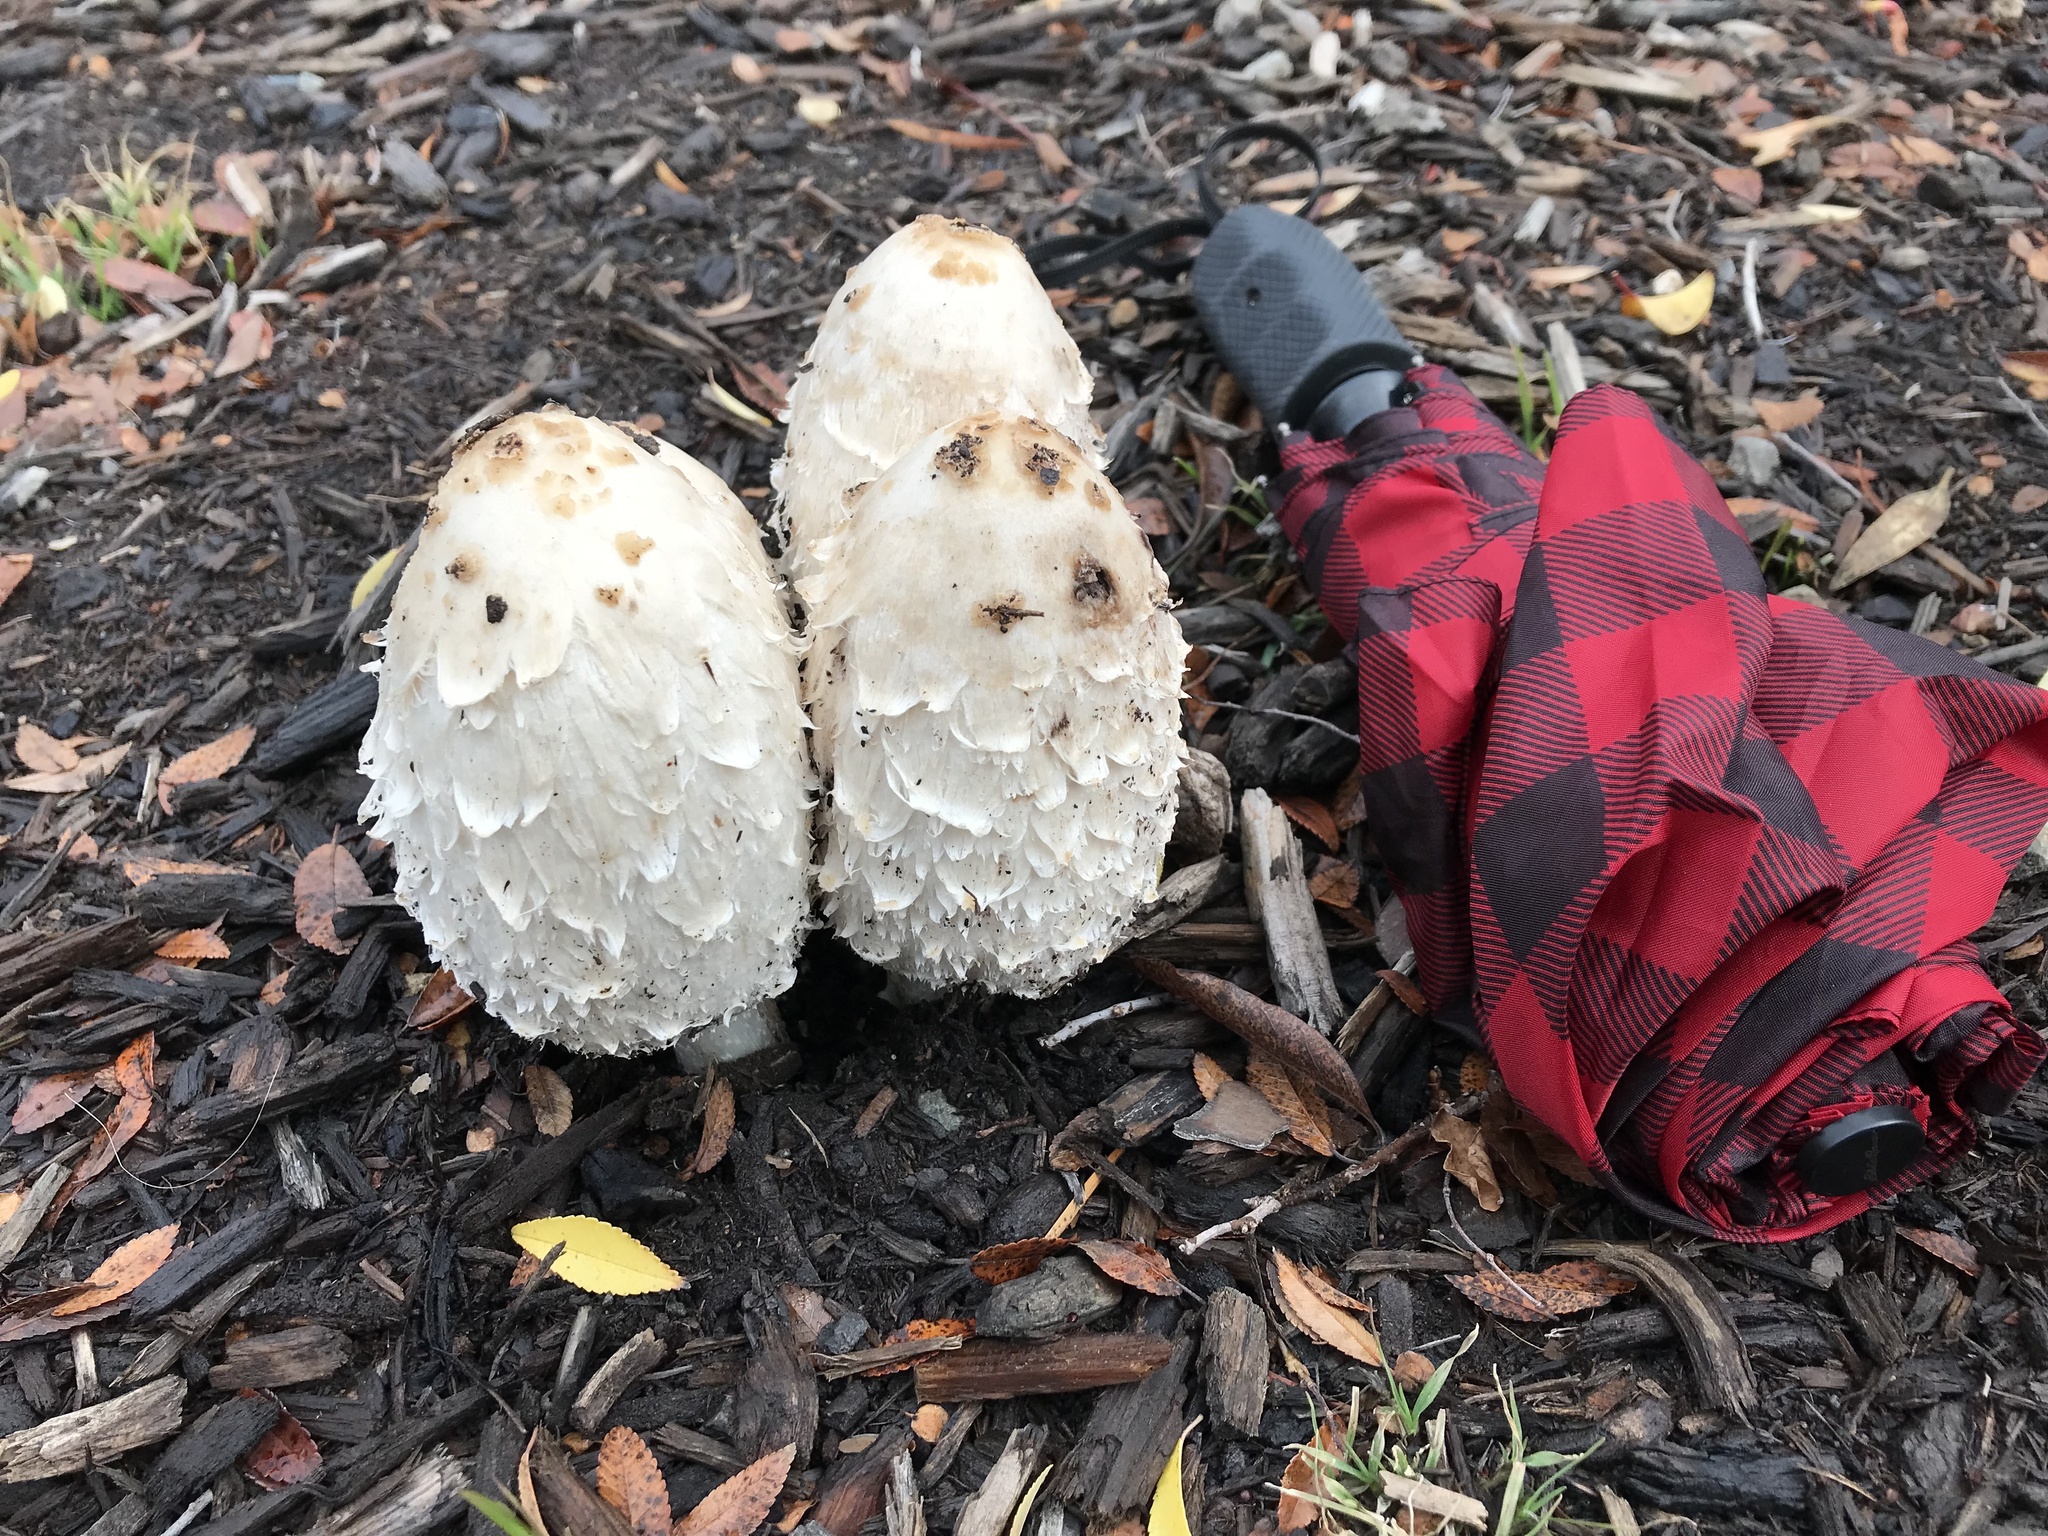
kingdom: Fungi
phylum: Basidiomycota
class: Agaricomycetes
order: Agaricales
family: Agaricaceae
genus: Coprinus
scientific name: Coprinus comatus
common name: Lawyer's wig
